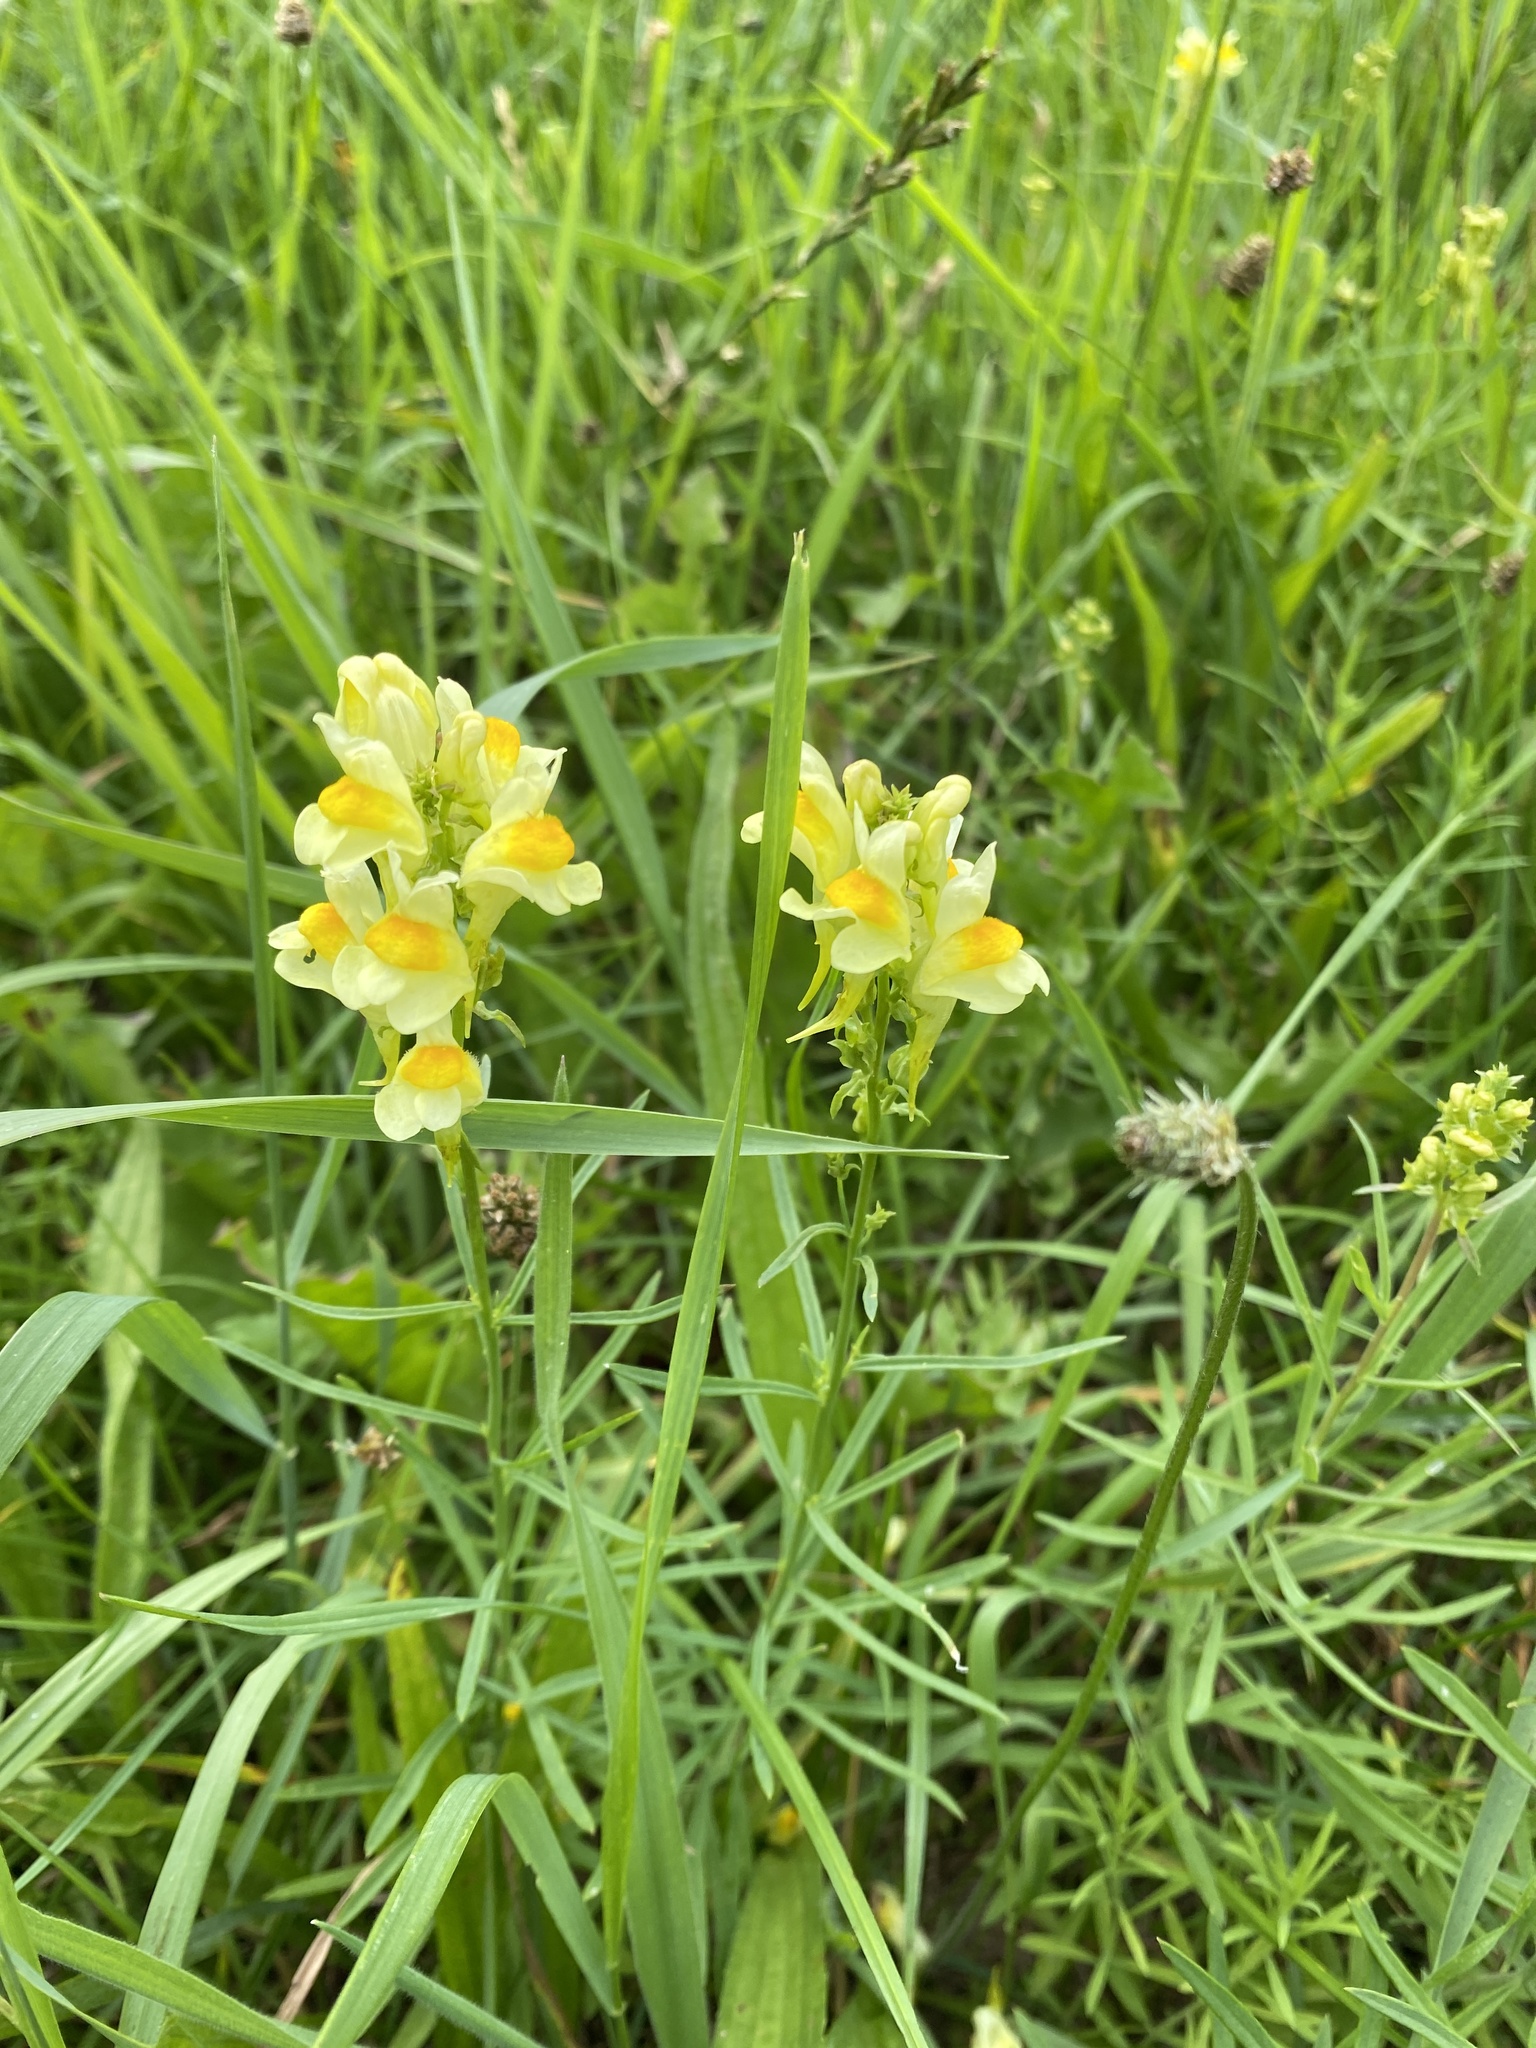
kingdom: Plantae
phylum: Tracheophyta
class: Magnoliopsida
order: Lamiales
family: Plantaginaceae
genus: Linaria
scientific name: Linaria vulgaris
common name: Butter and eggs
